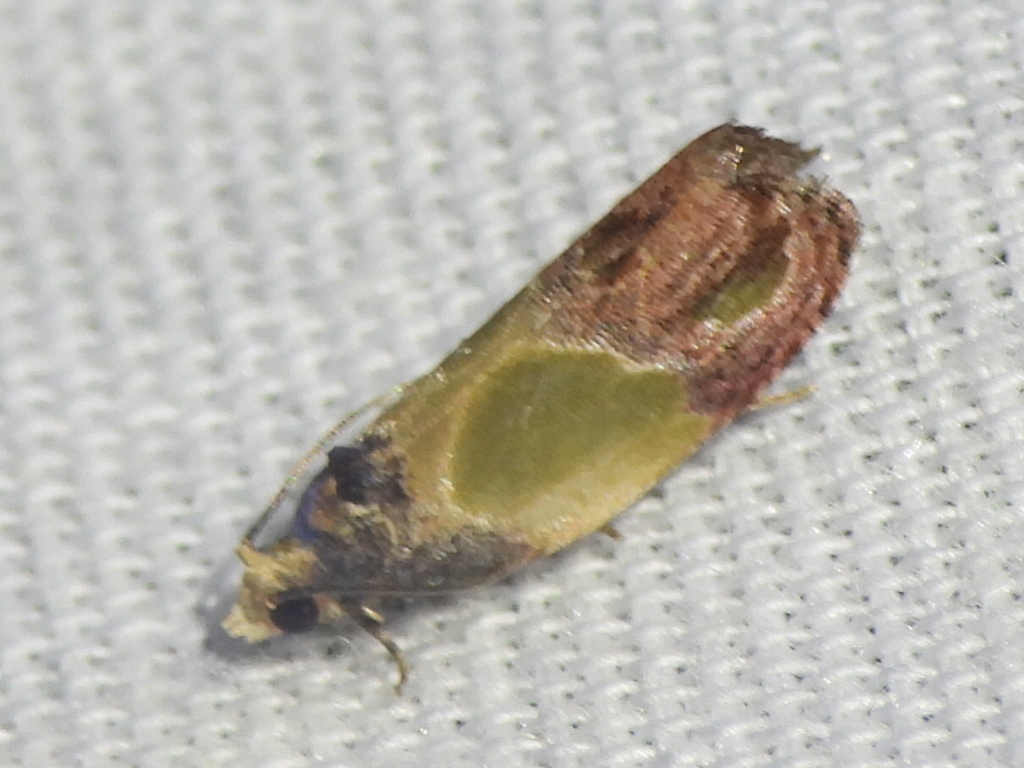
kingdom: Animalia
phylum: Arthropoda
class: Insecta
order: Lepidoptera
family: Tortricidae
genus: Eumarozia
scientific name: Eumarozia malachitana
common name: Sculptured moth
